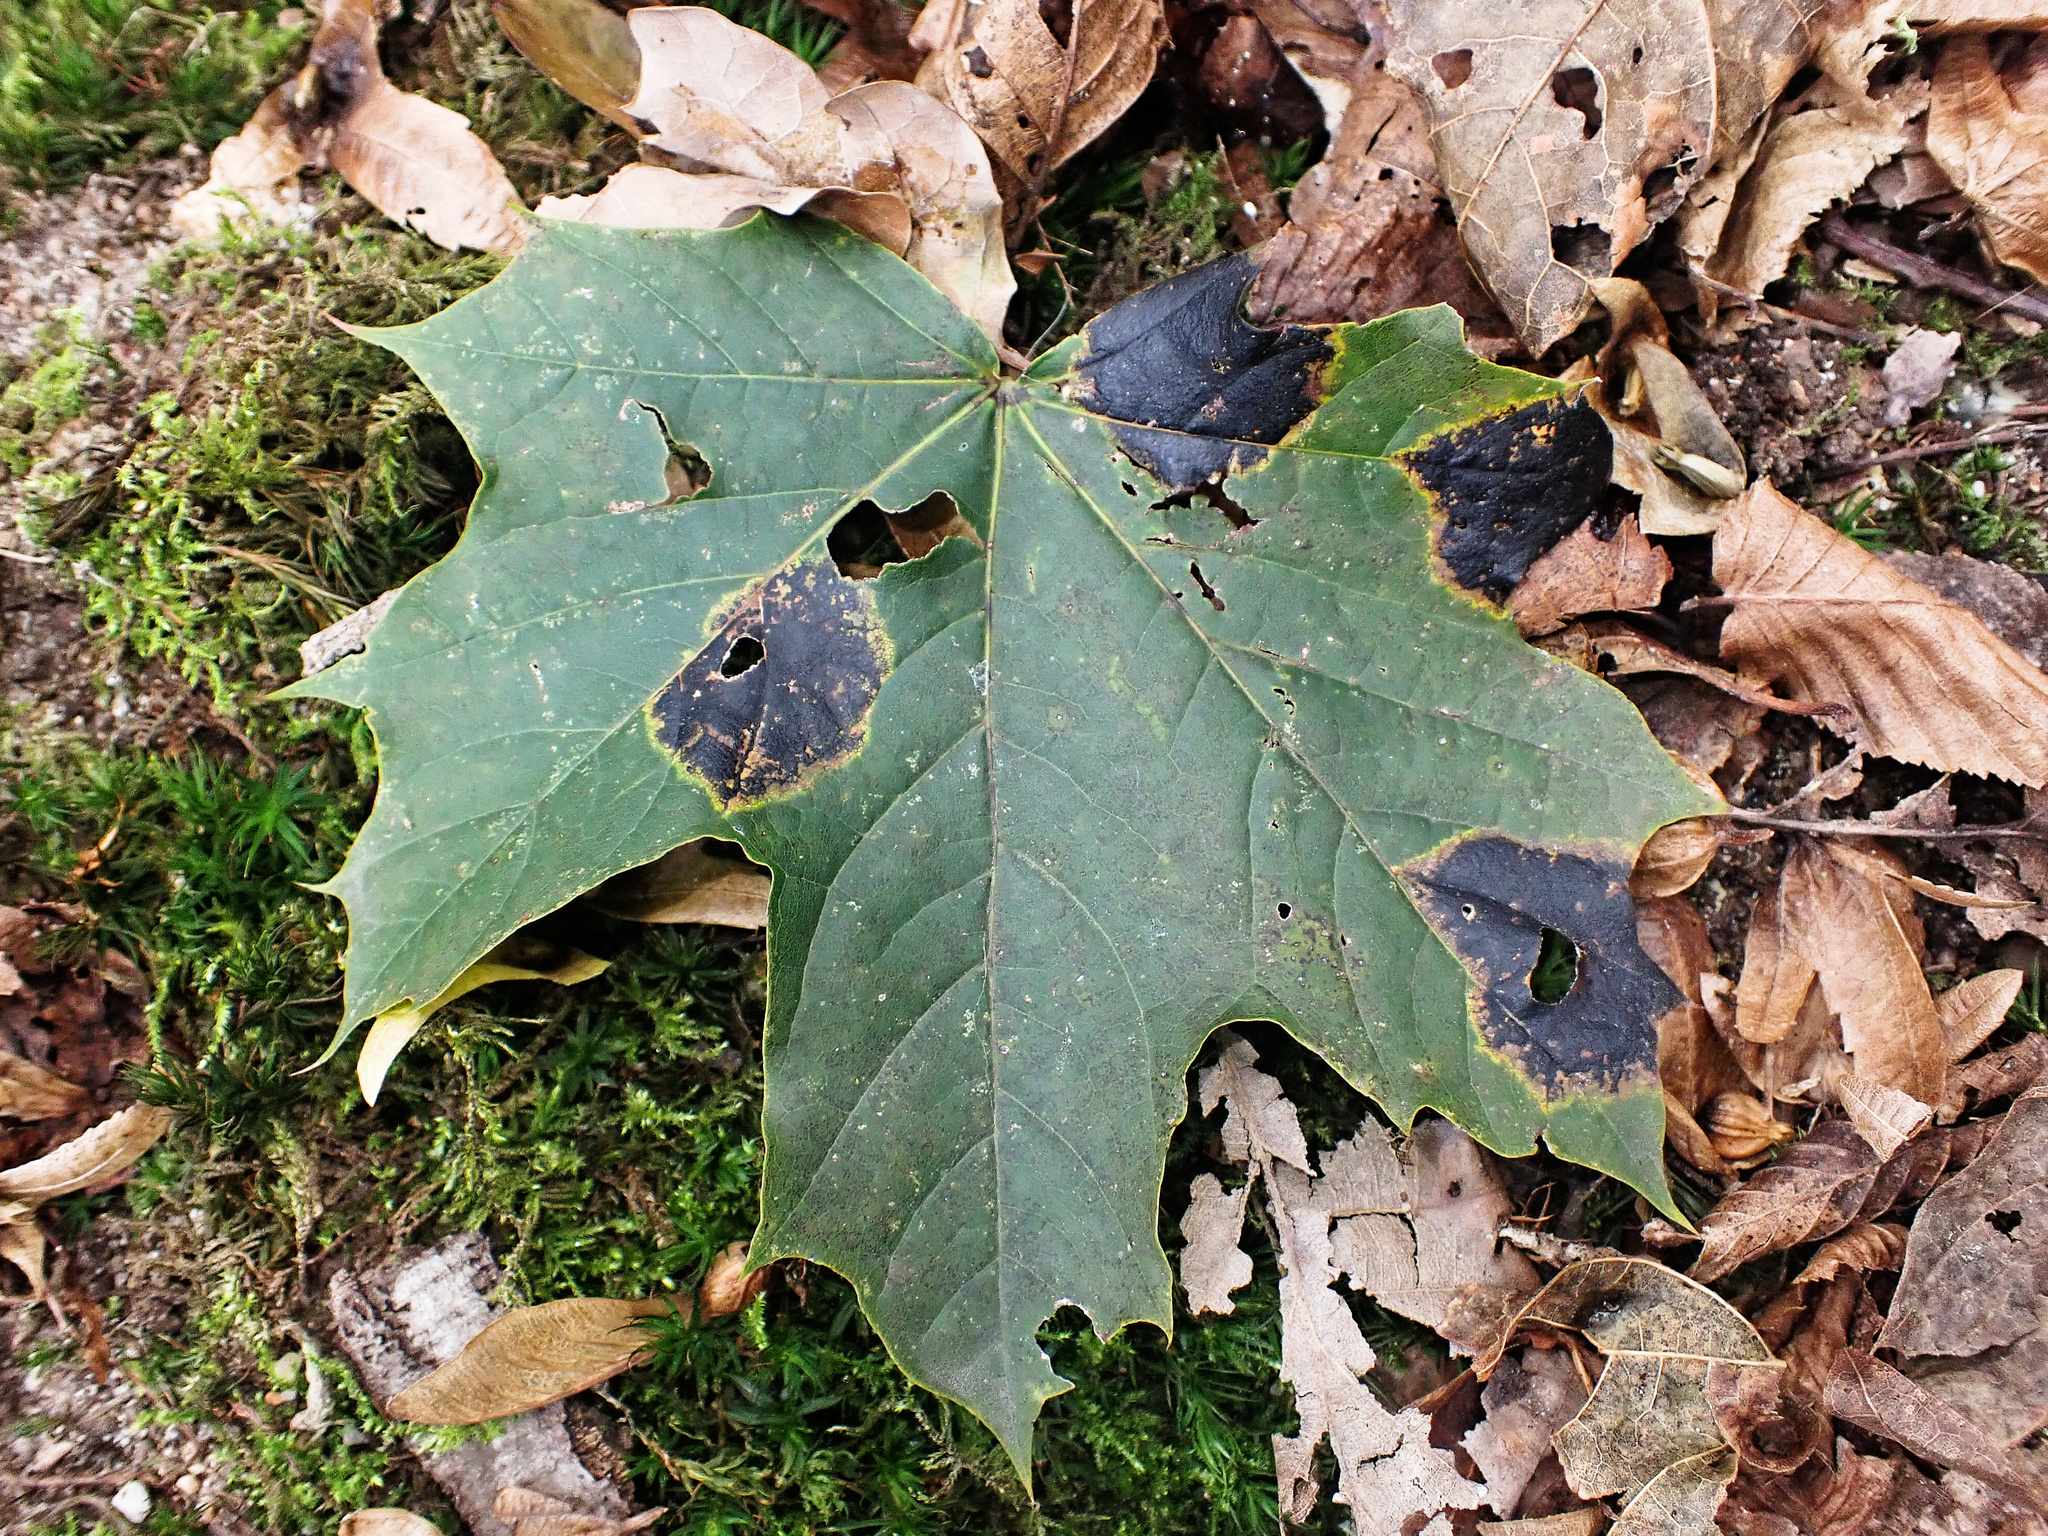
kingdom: Fungi
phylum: Ascomycota
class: Leotiomycetes
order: Rhytismatales
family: Rhytismataceae
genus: Rhytisma
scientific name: Rhytisma acerinum
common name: European tar spot
